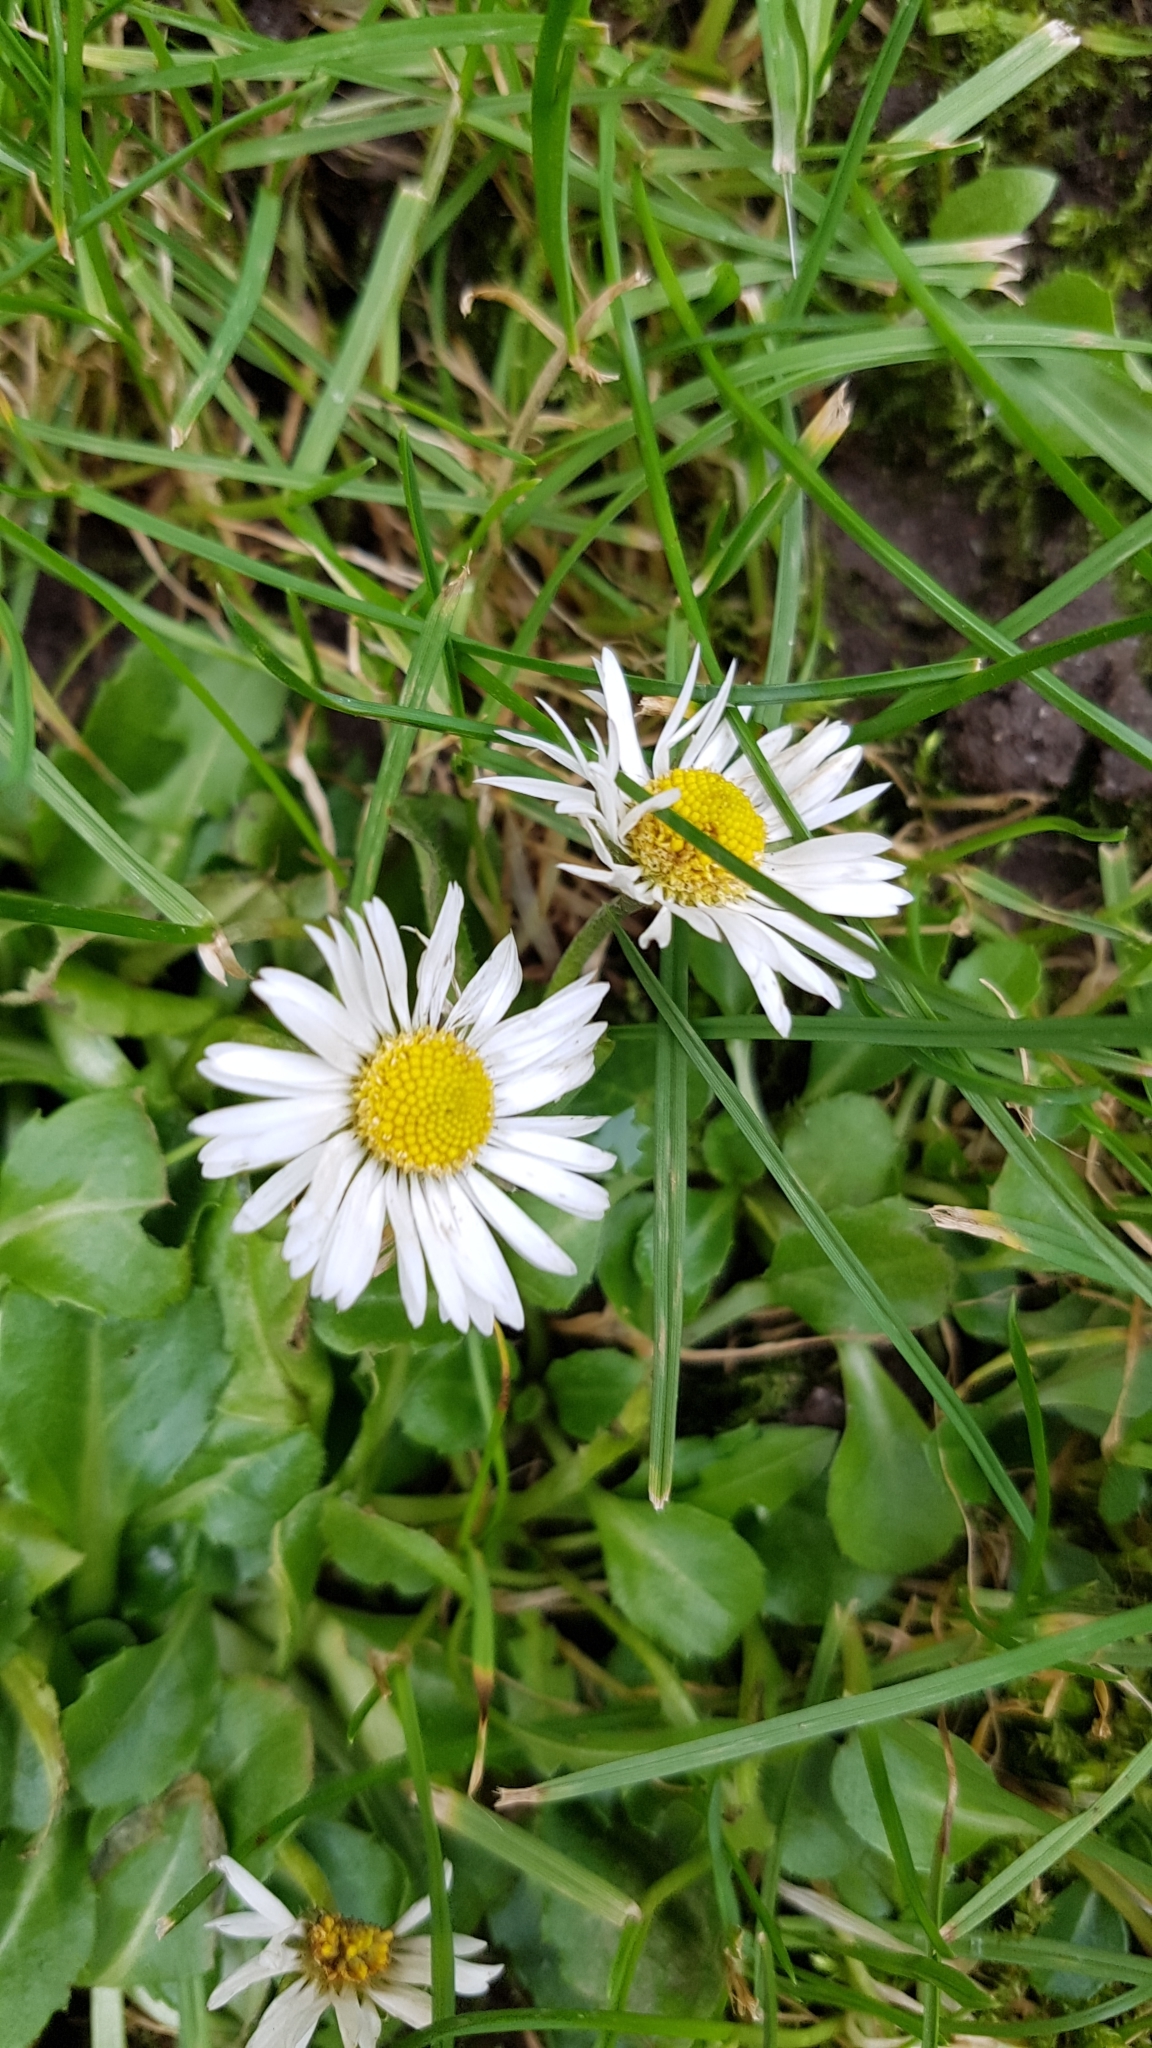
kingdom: Plantae
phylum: Tracheophyta
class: Magnoliopsida
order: Asterales
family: Asteraceae
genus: Bellis
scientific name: Bellis perennis
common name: Lawndaisy
